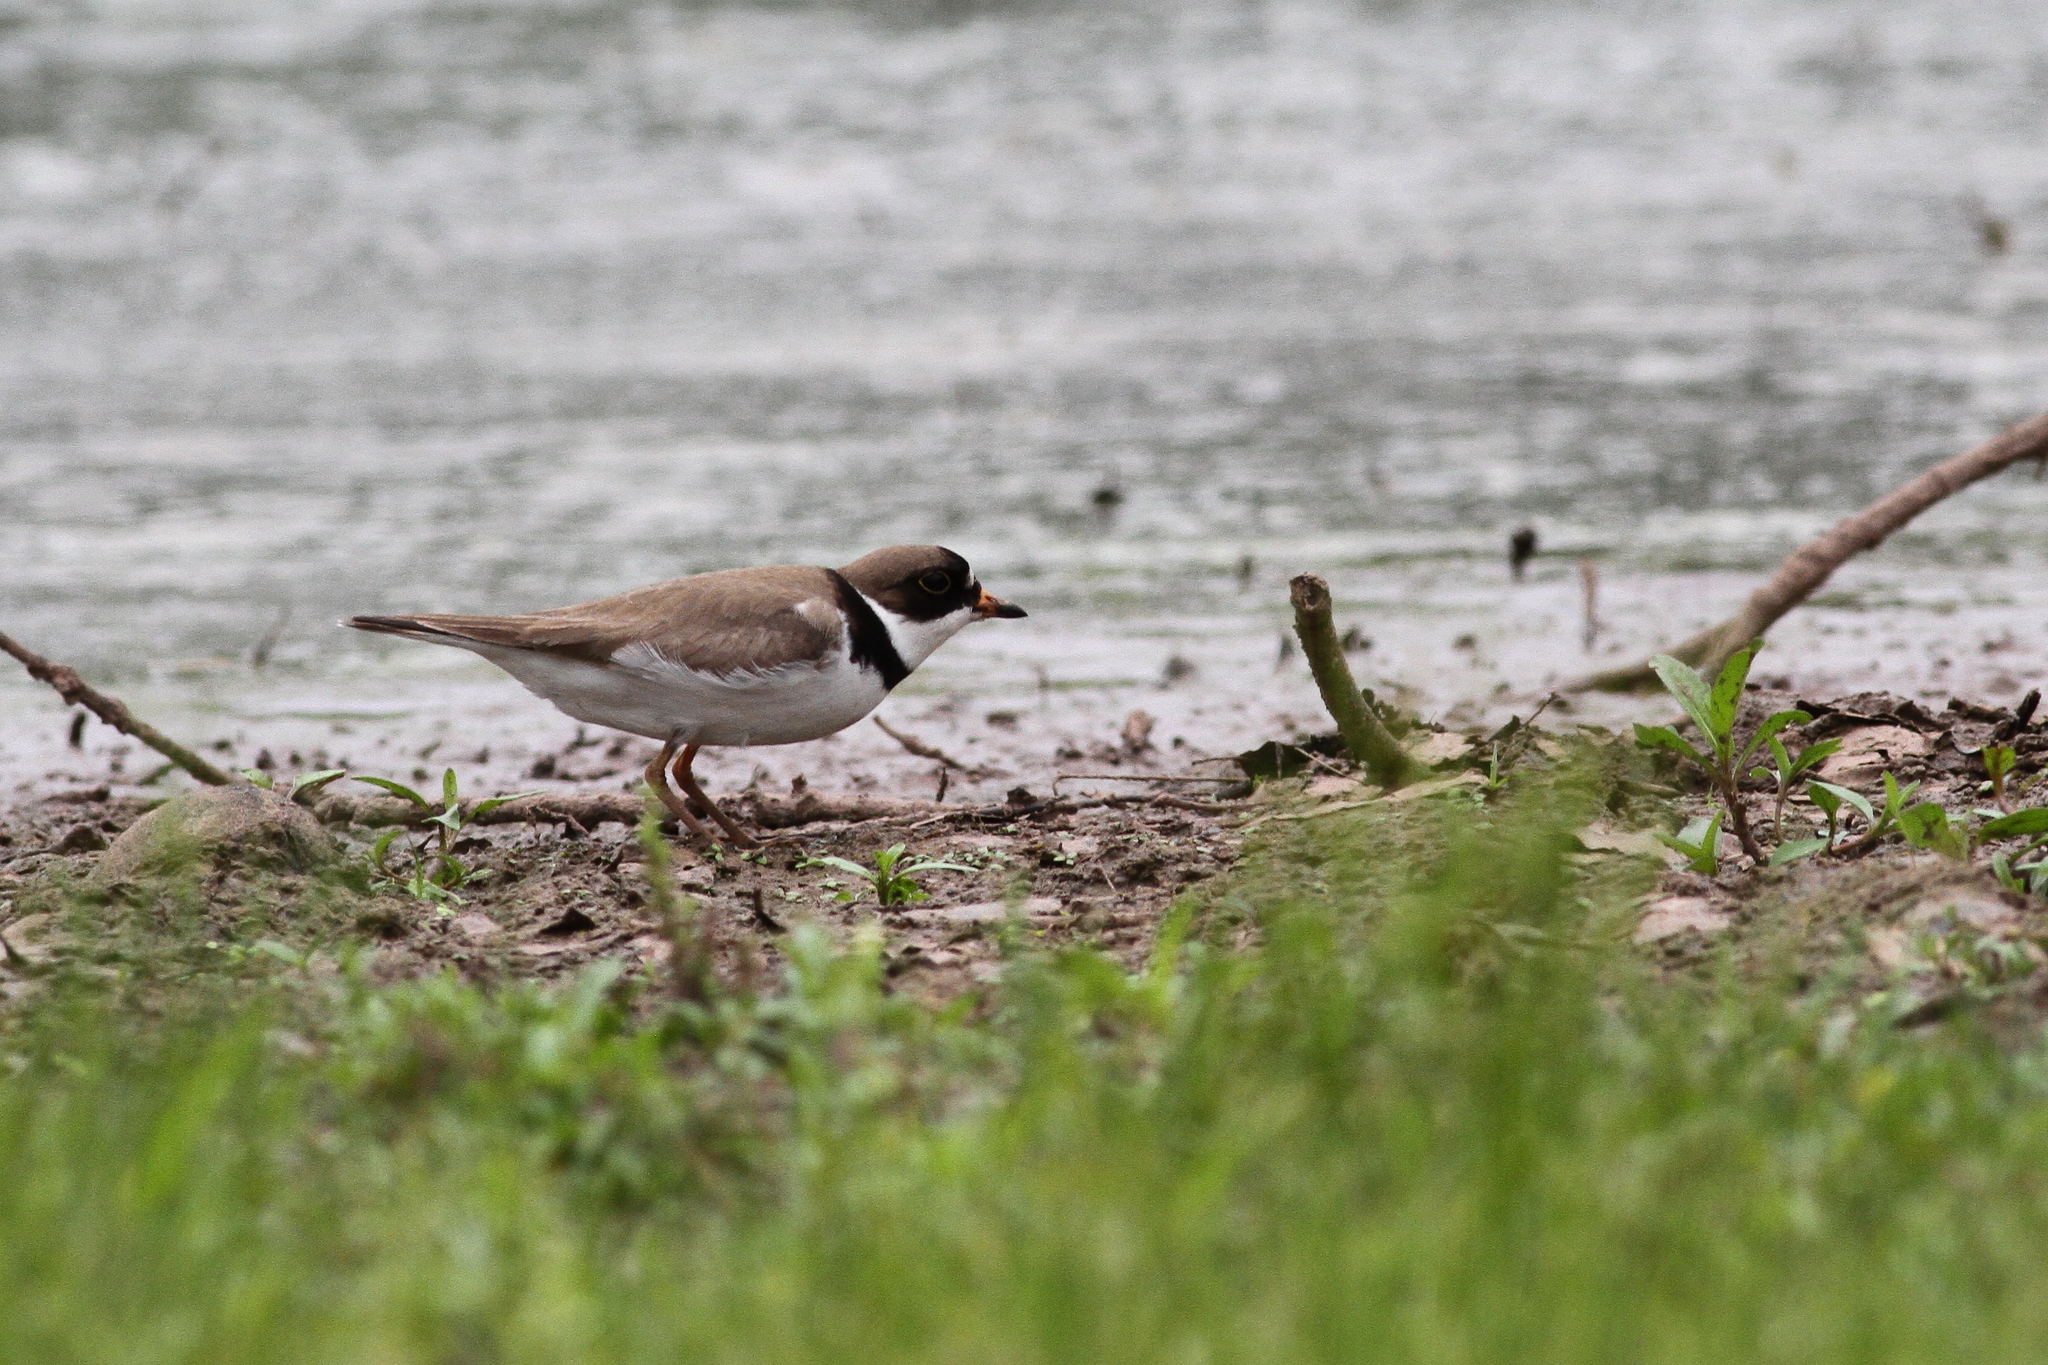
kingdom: Animalia
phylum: Chordata
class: Aves
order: Charadriiformes
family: Charadriidae
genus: Charadrius
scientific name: Charadrius semipalmatus
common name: Semipalmated plover
